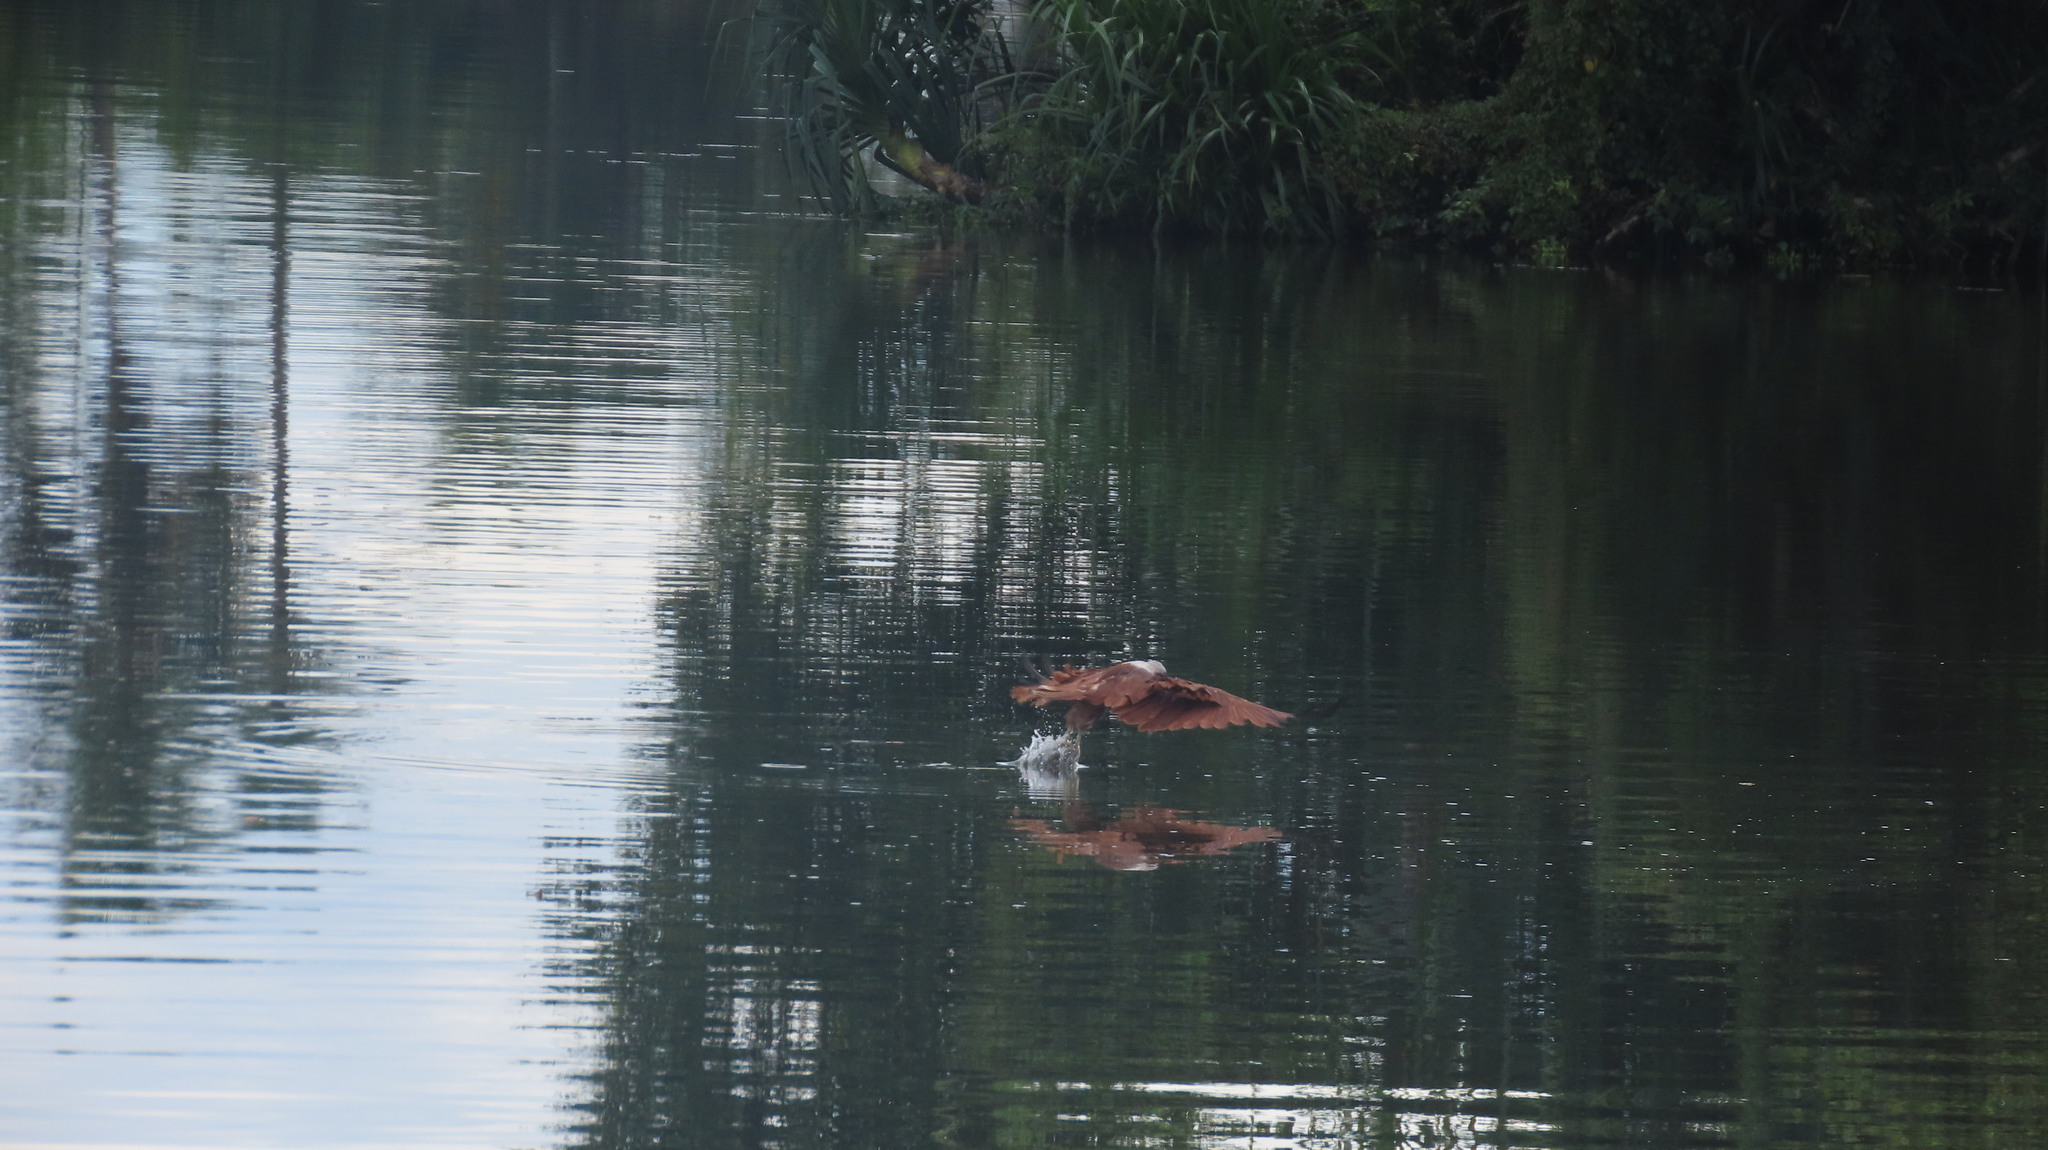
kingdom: Animalia
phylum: Chordata
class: Aves
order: Accipitriformes
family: Accipitridae
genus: Haliastur
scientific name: Haliastur indus
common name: Brahminy kite
